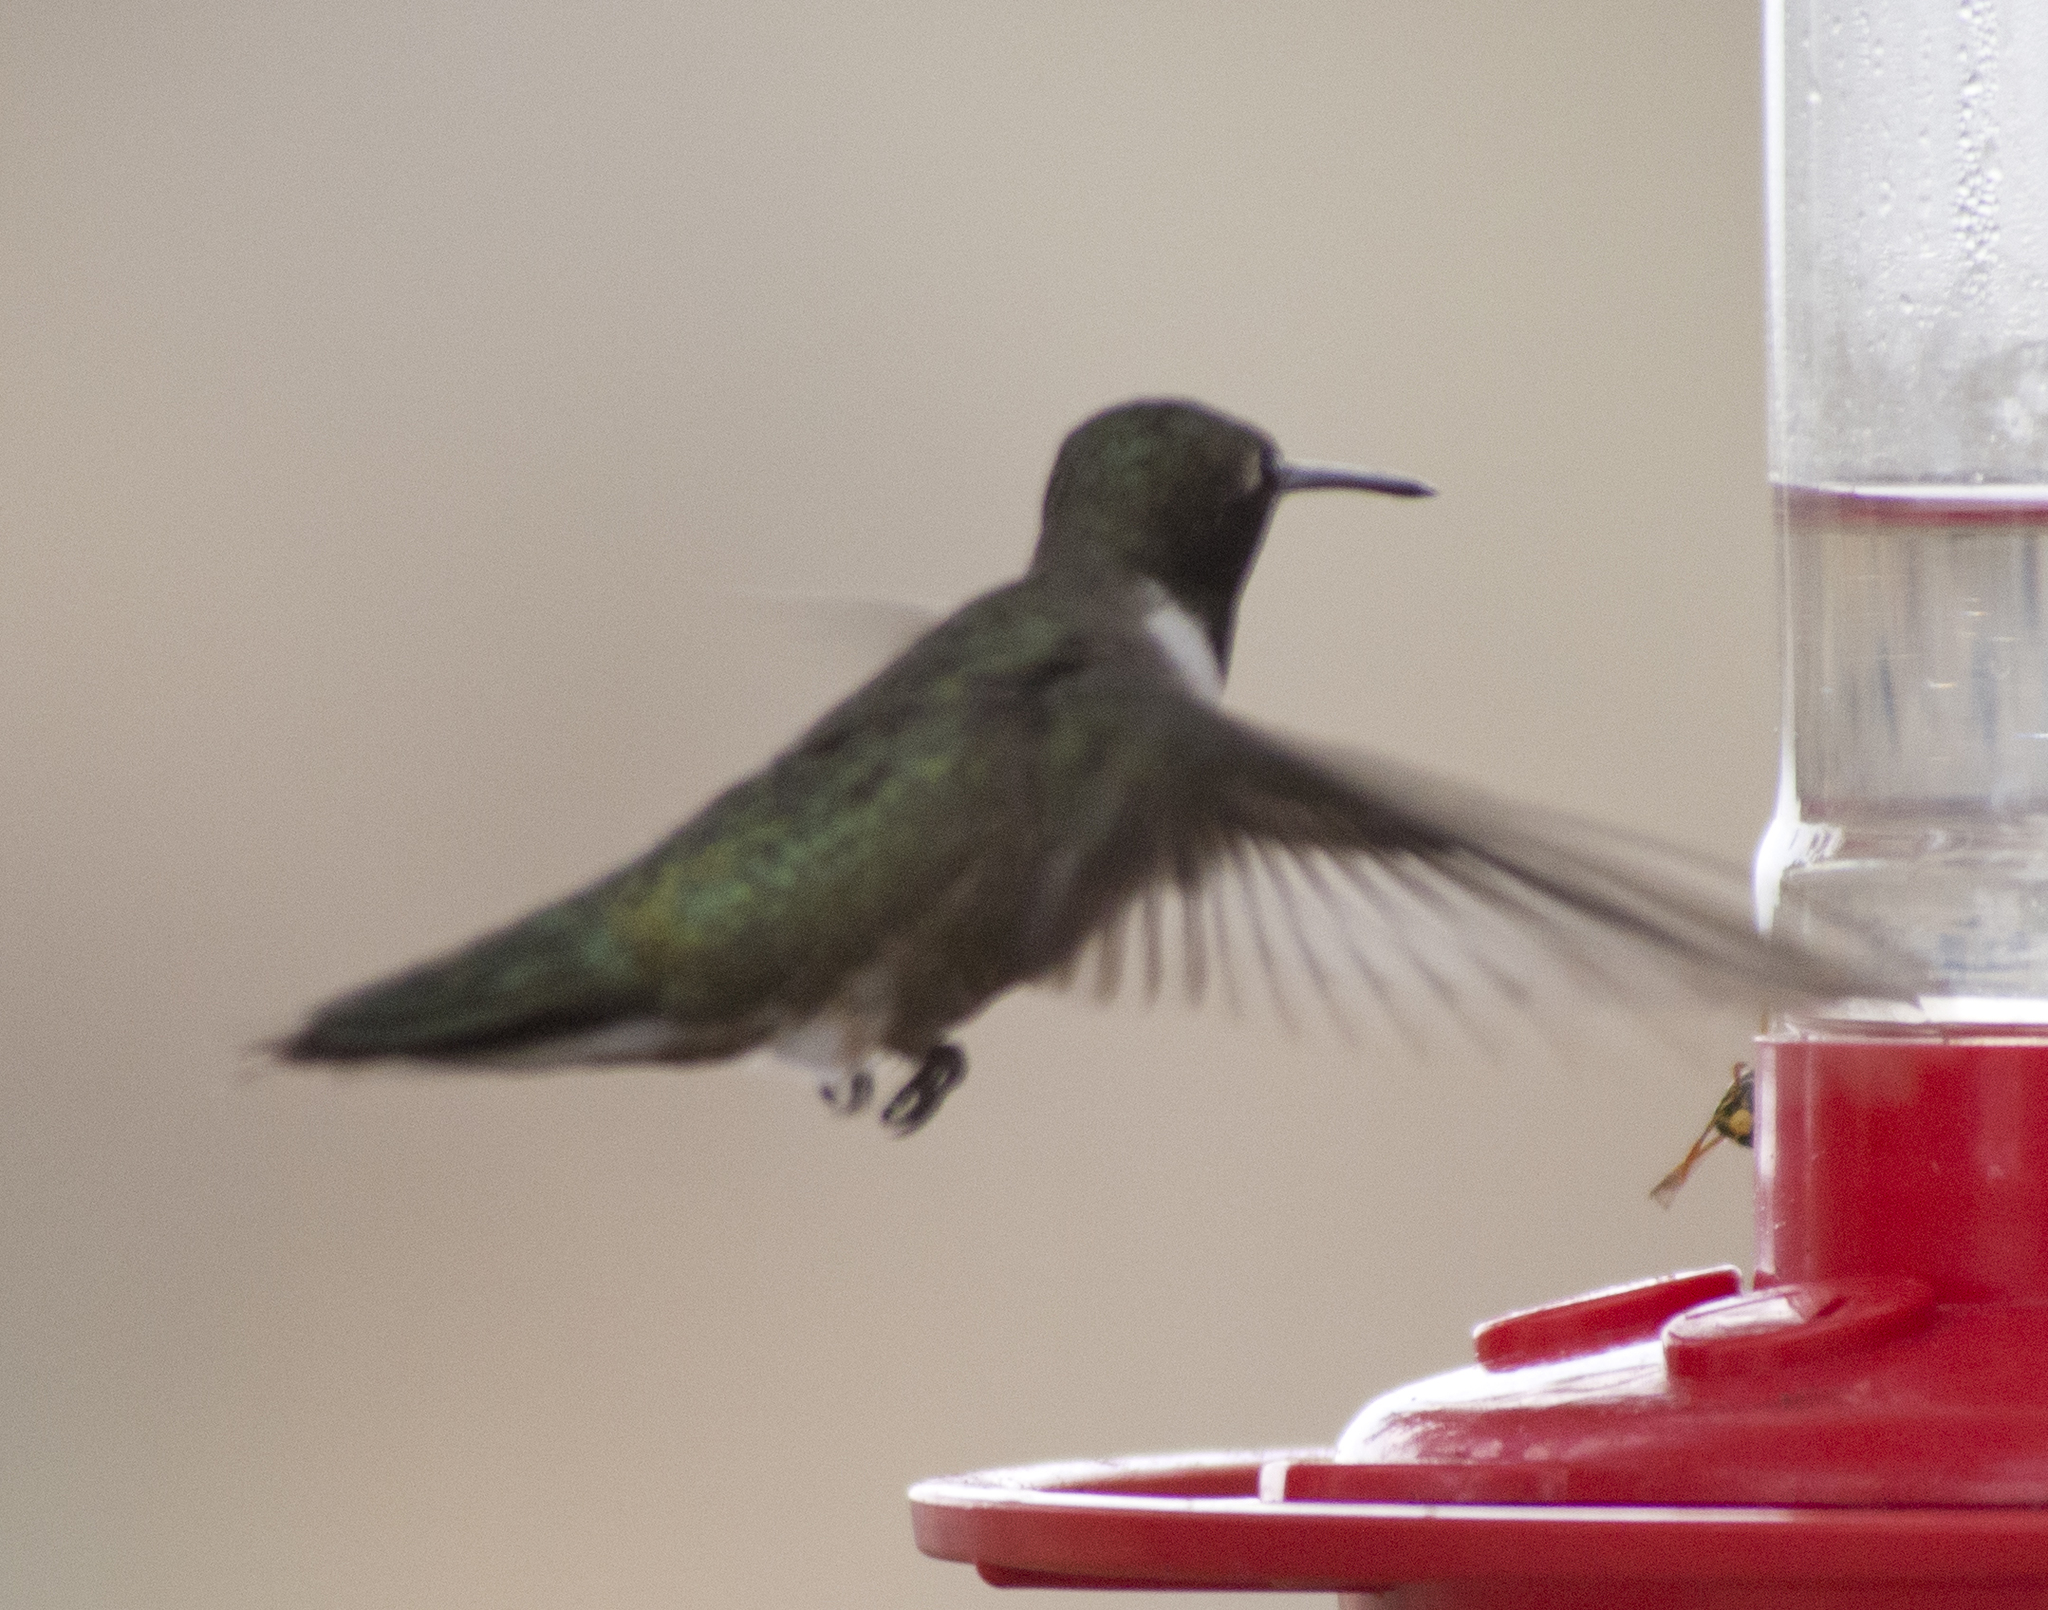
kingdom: Animalia
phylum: Chordata
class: Aves
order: Apodiformes
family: Trochilidae
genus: Archilochus
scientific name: Archilochus alexandri
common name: Black-chinned hummingbird
